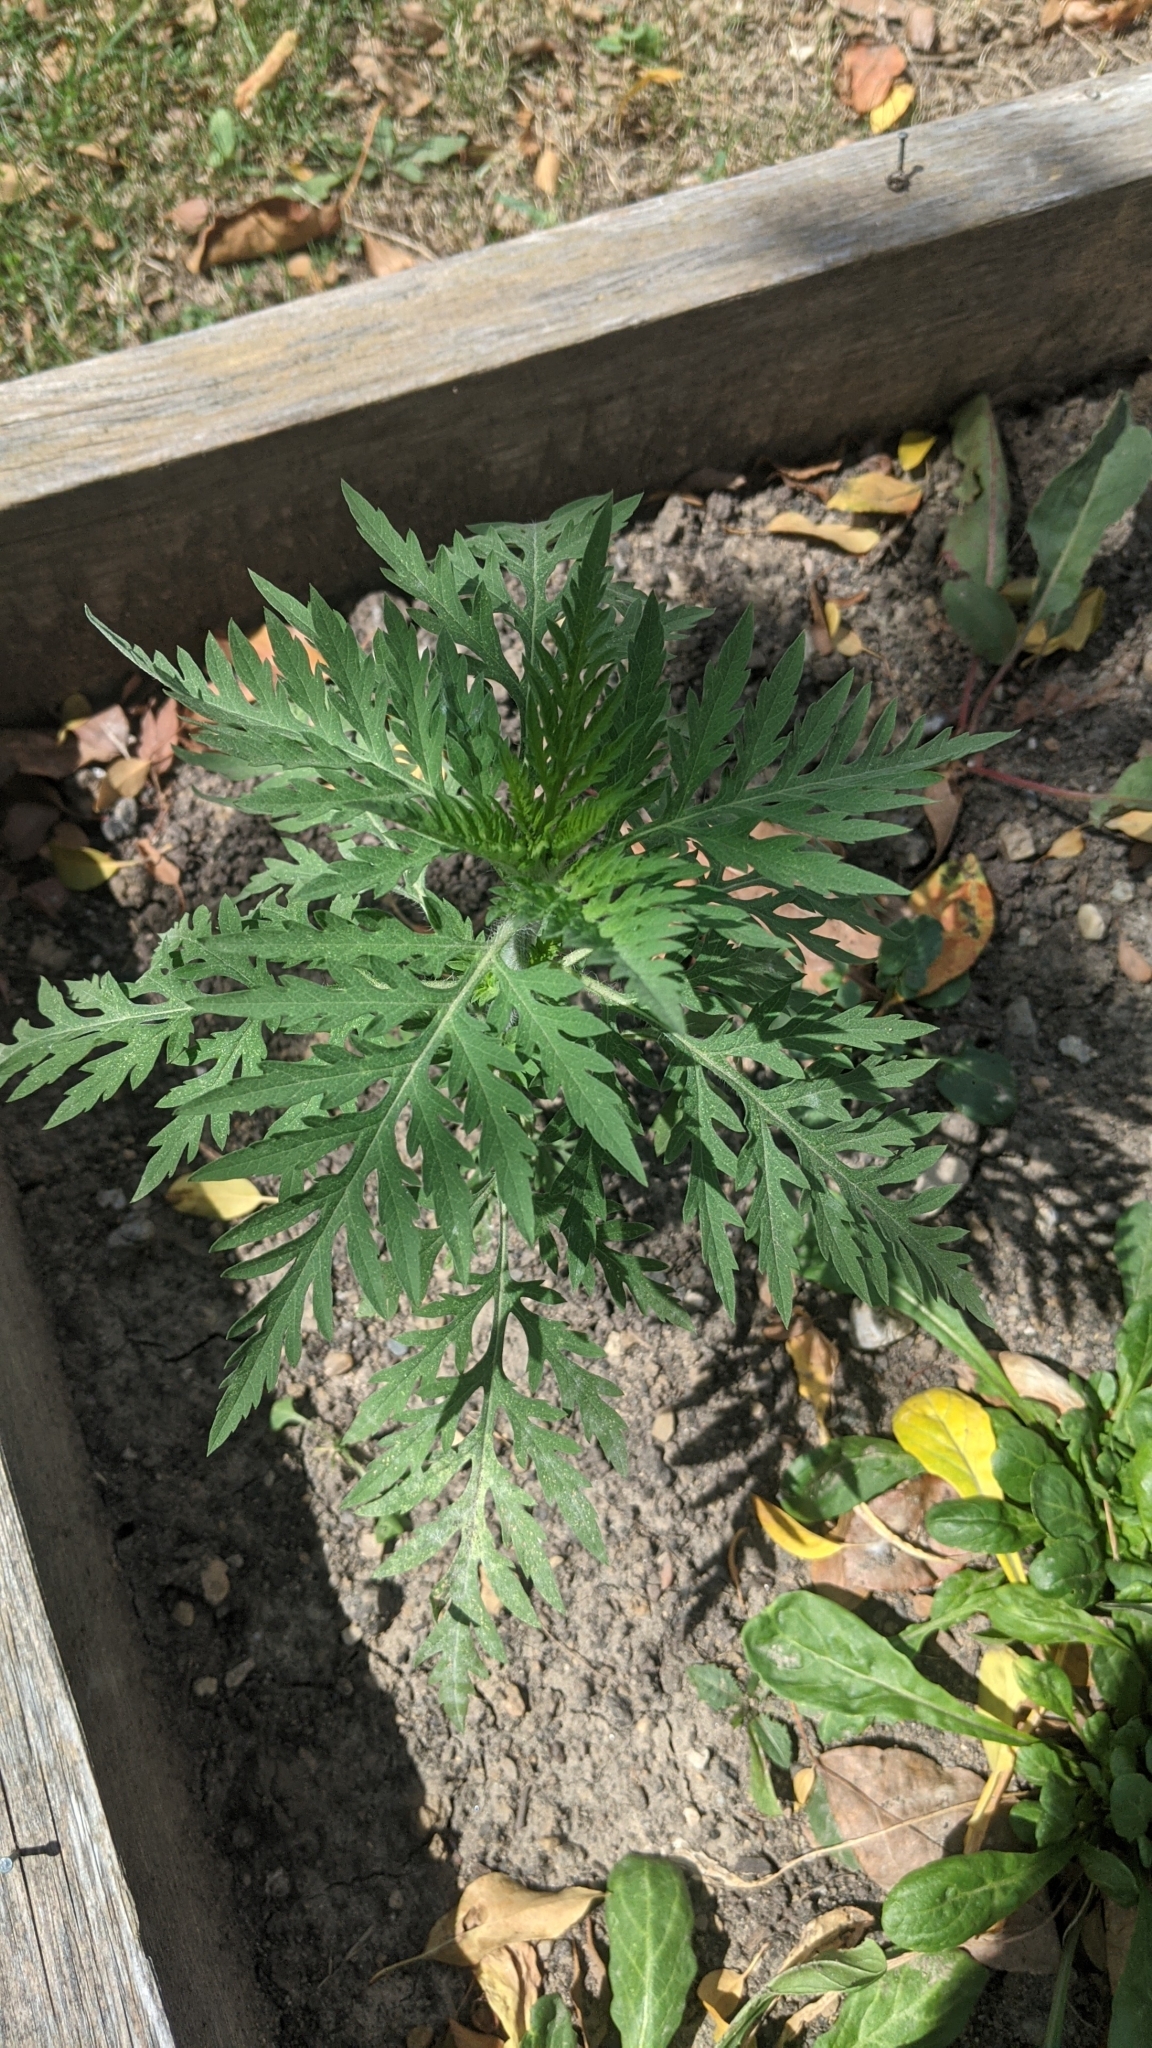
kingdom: Plantae
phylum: Tracheophyta
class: Magnoliopsida
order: Asterales
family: Asteraceae
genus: Ambrosia
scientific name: Ambrosia artemisiifolia
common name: Annual ragweed
